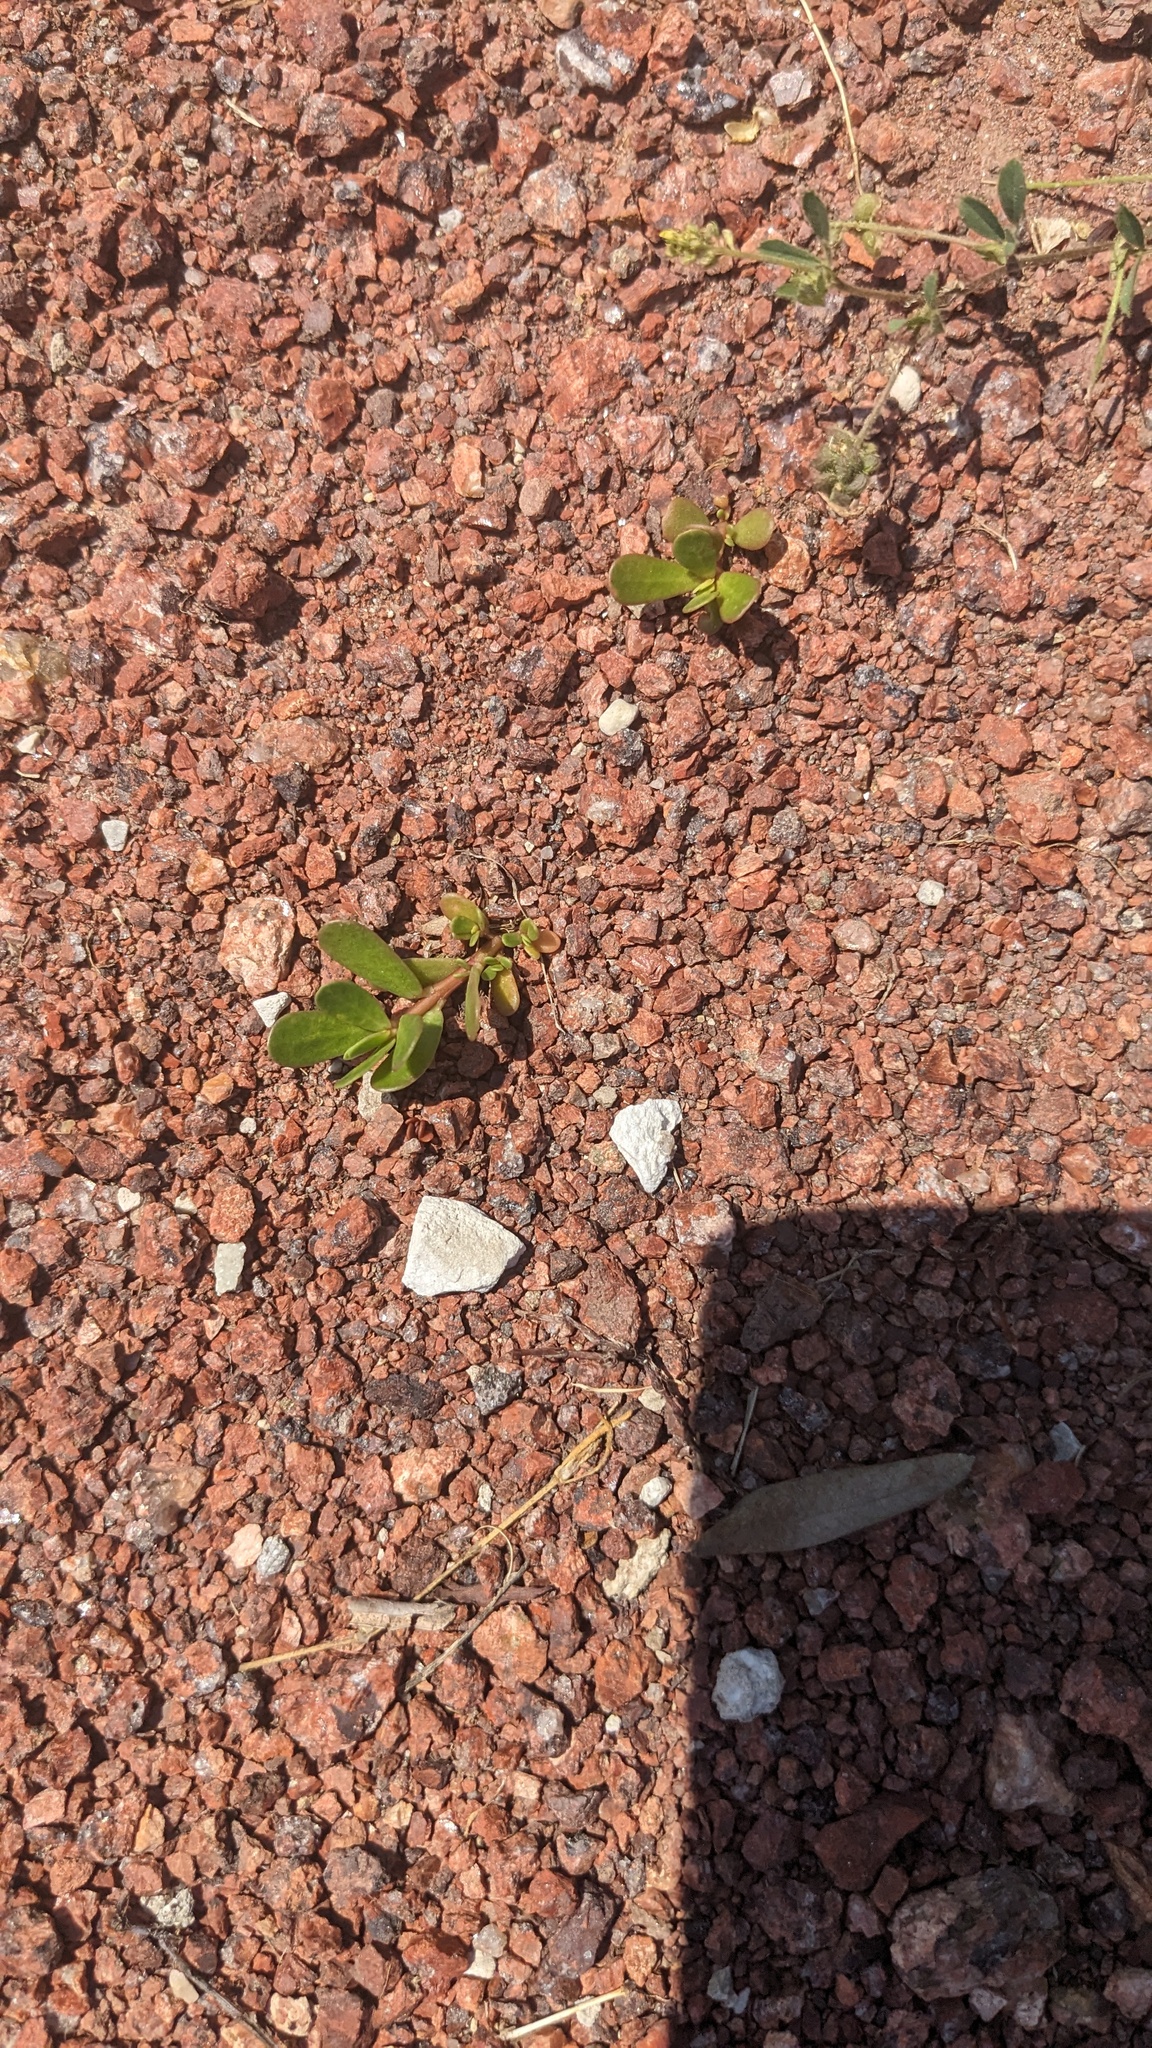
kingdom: Plantae
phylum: Tracheophyta
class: Magnoliopsida
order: Caryophyllales
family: Portulacaceae
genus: Portulaca
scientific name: Portulaca oleracea
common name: Common purslane
